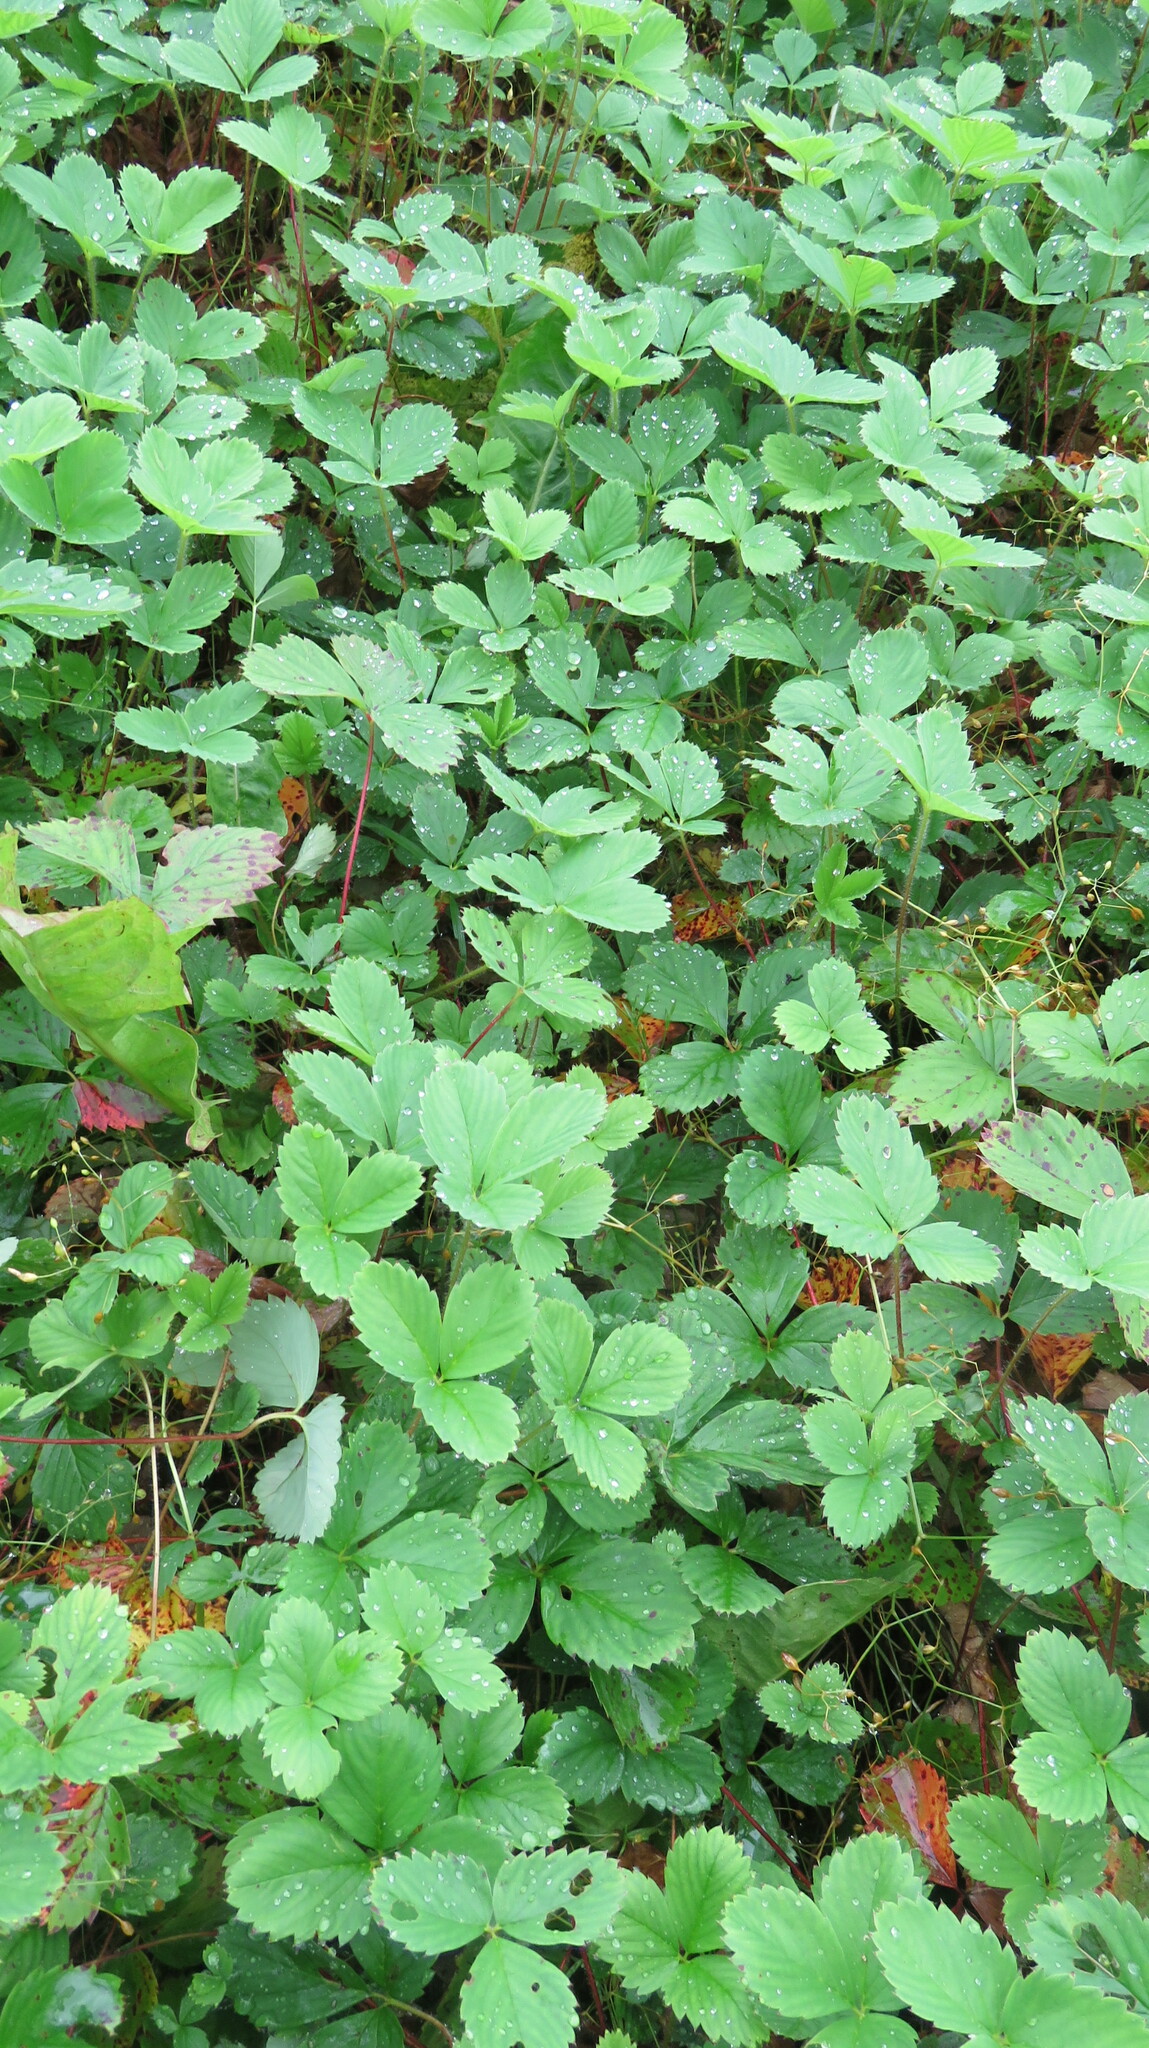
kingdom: Plantae
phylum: Tracheophyta
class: Magnoliopsida
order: Rosales
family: Rosaceae
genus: Fragaria
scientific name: Fragaria virginiana
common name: Thickleaved wild strawberry
